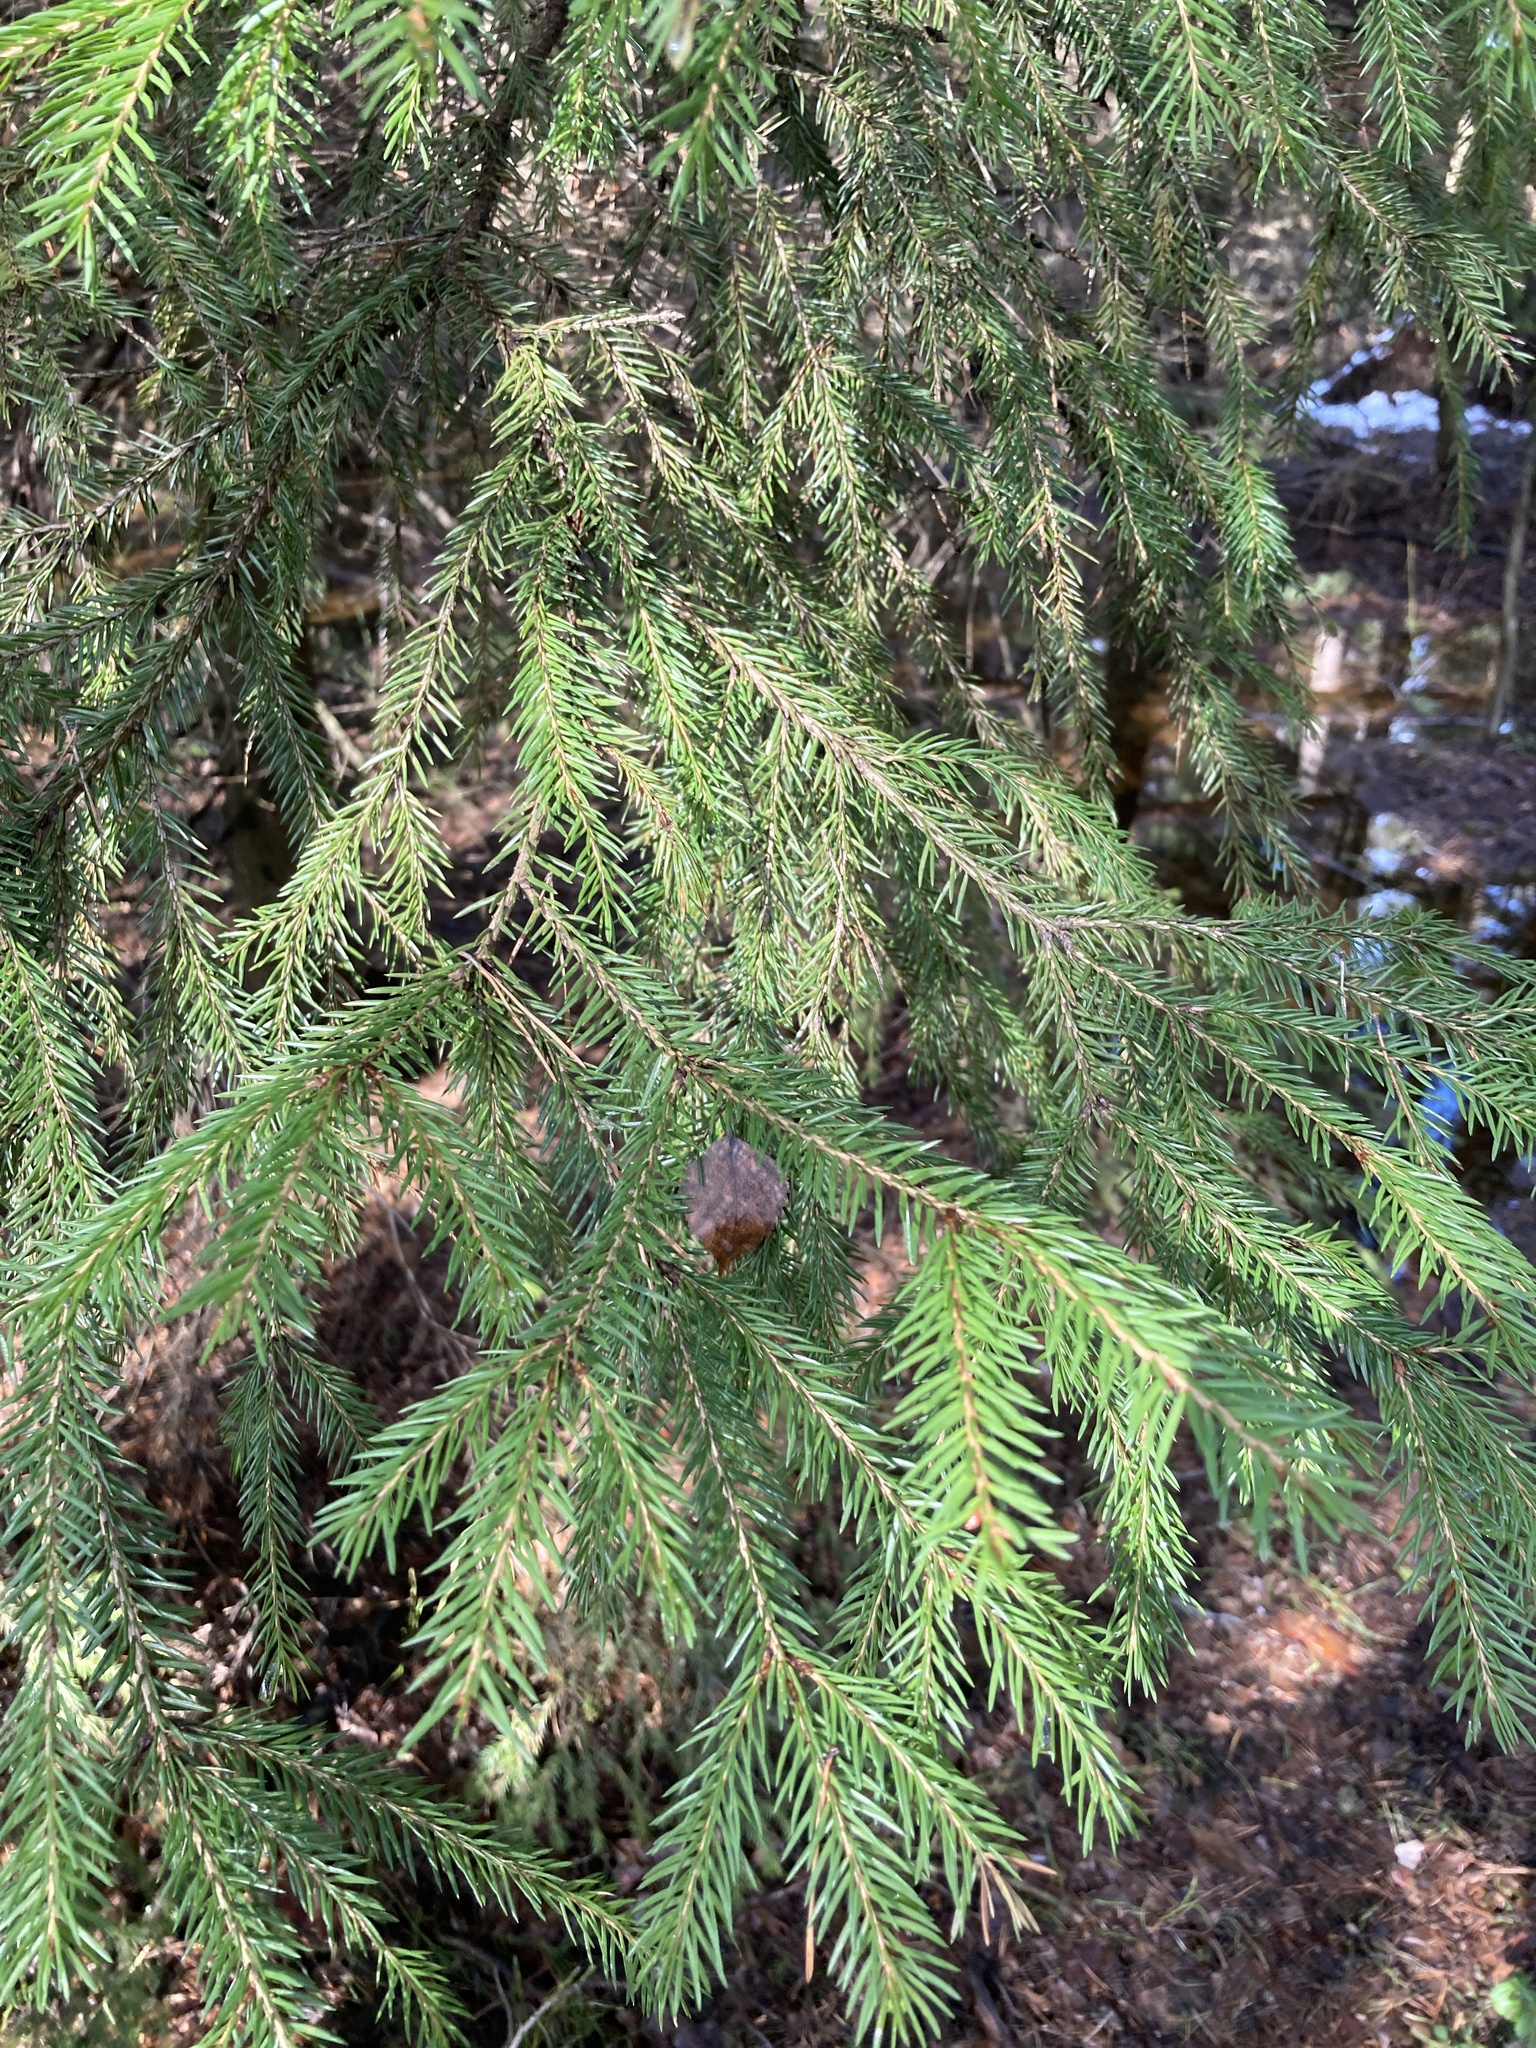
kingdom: Plantae
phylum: Tracheophyta
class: Pinopsida
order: Pinales
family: Pinaceae
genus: Picea
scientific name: Picea abies
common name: Norway spruce
